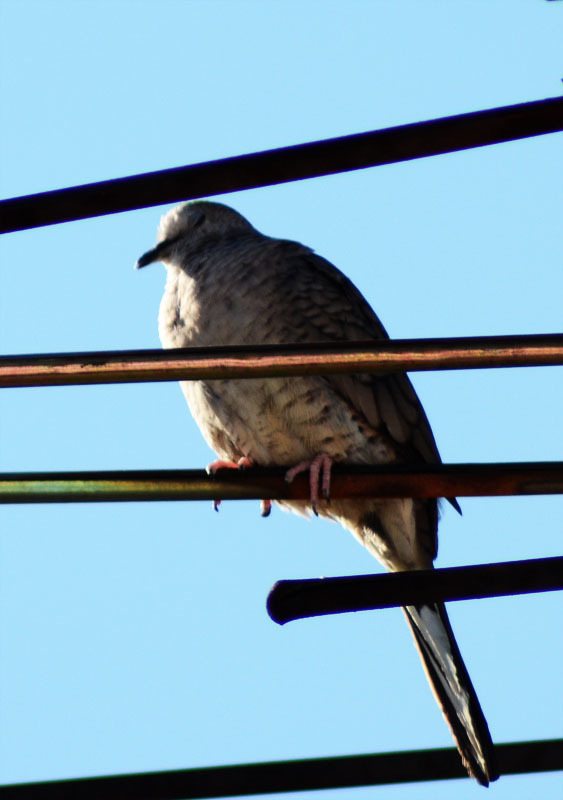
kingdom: Animalia
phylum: Chordata
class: Aves
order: Columbiformes
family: Columbidae
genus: Columbina
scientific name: Columbina inca
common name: Inca dove
